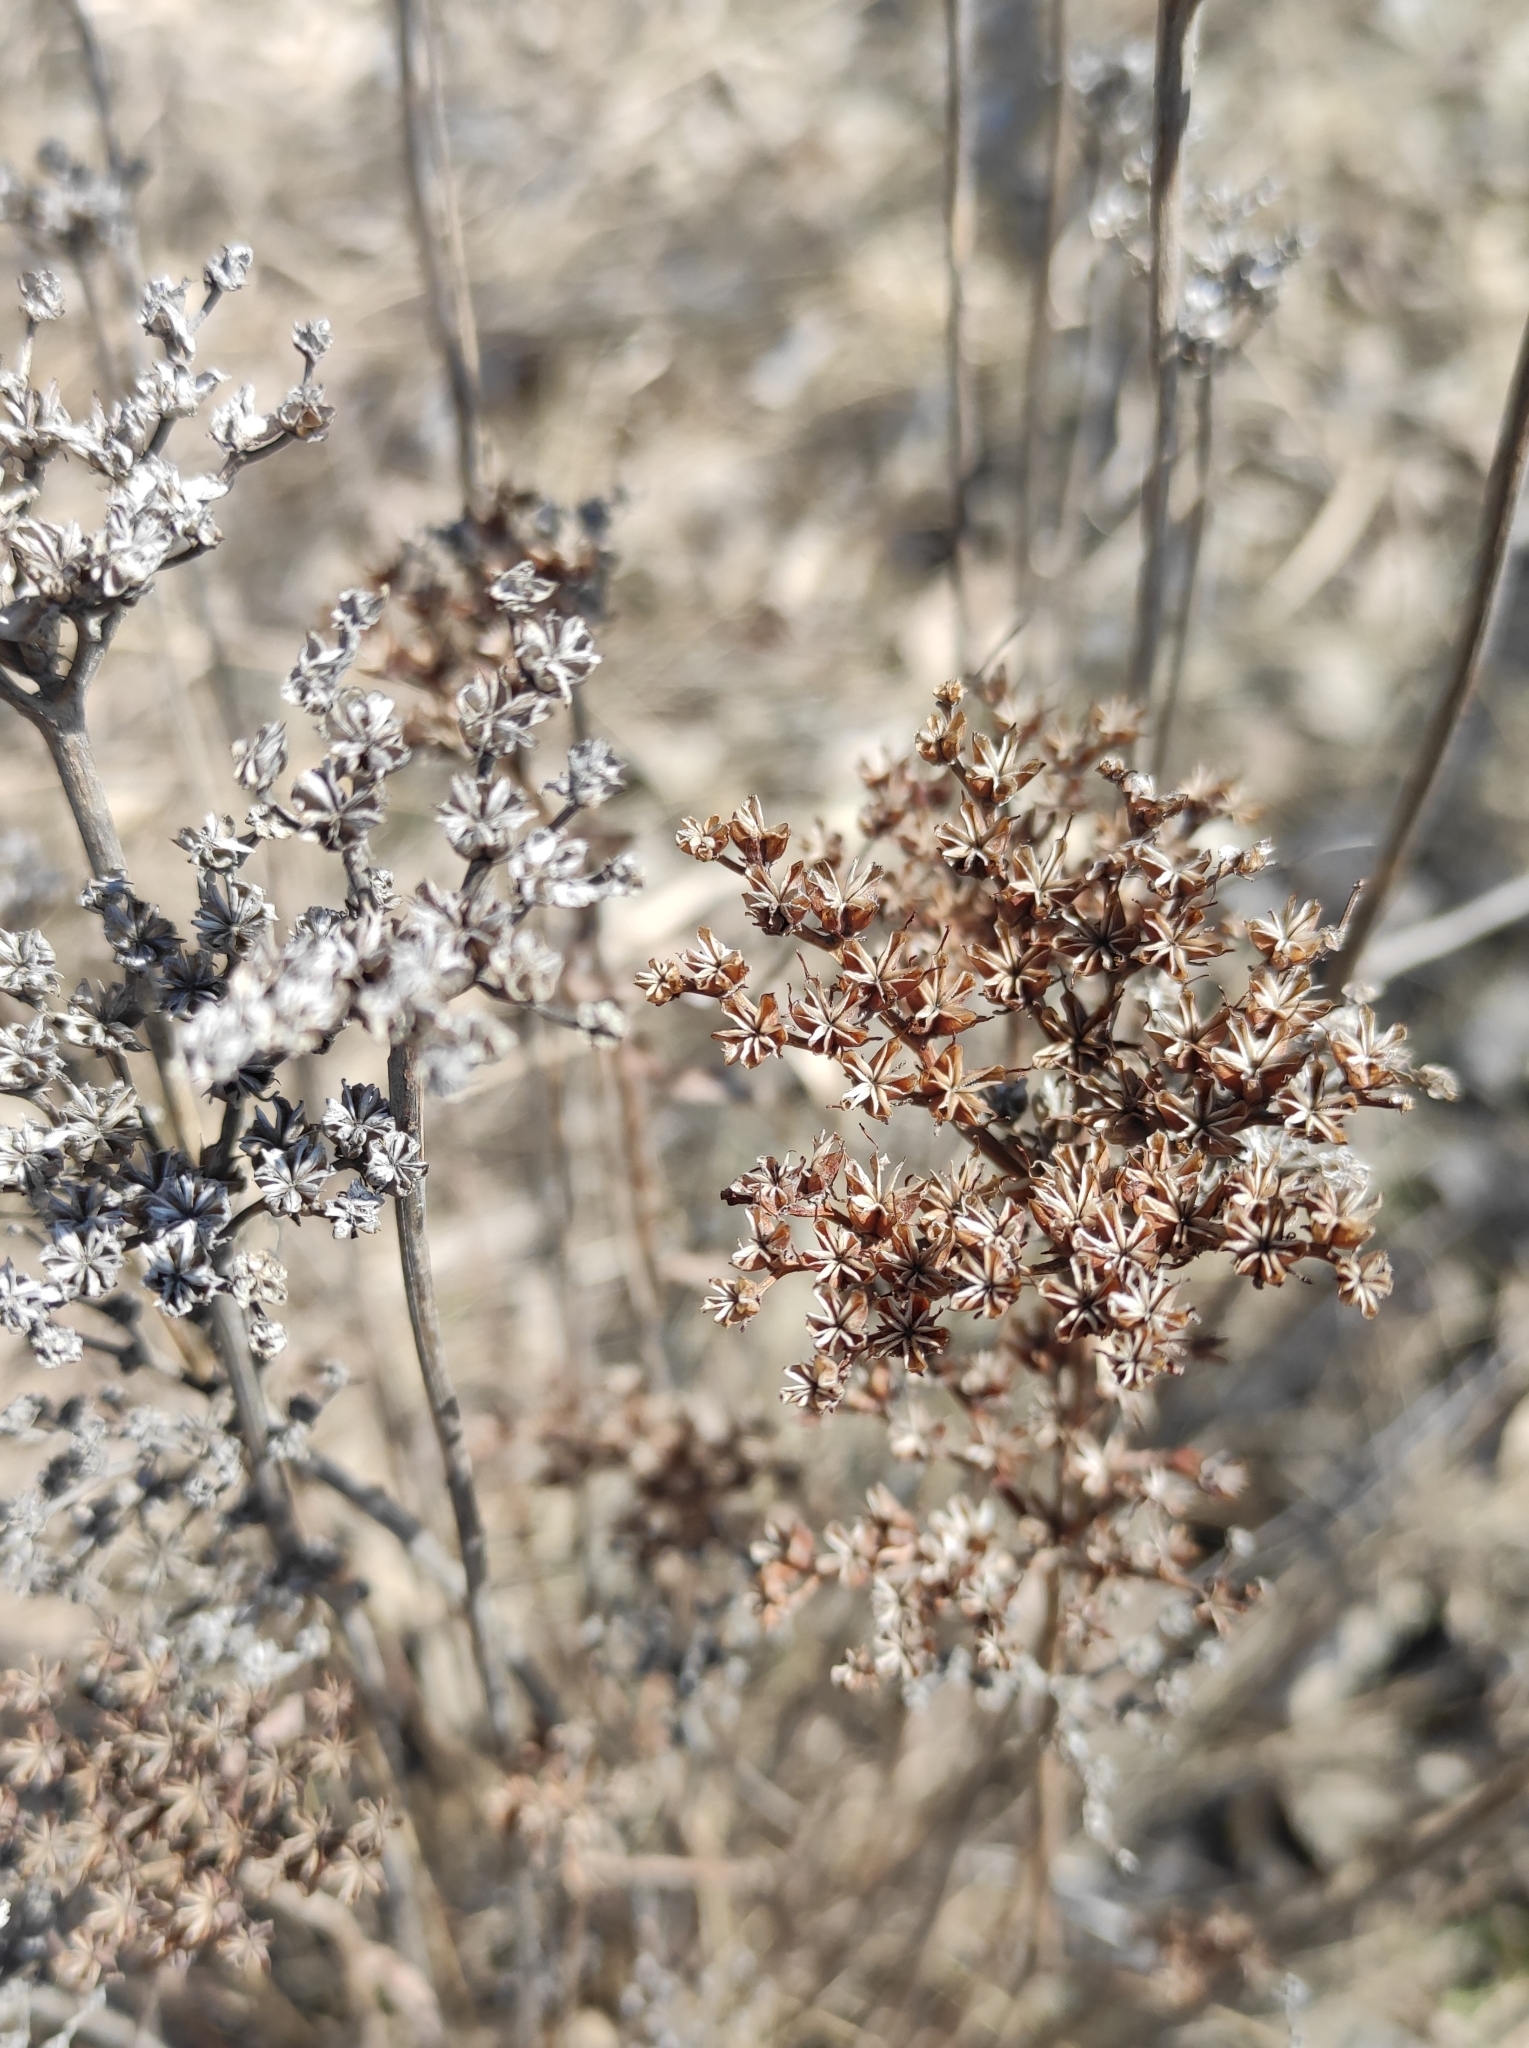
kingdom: Plantae
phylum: Tracheophyta
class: Magnoliopsida
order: Saxifragales
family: Crassulaceae
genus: Phedimus
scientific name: Phedimus aizoon
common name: Orpin aizoon
